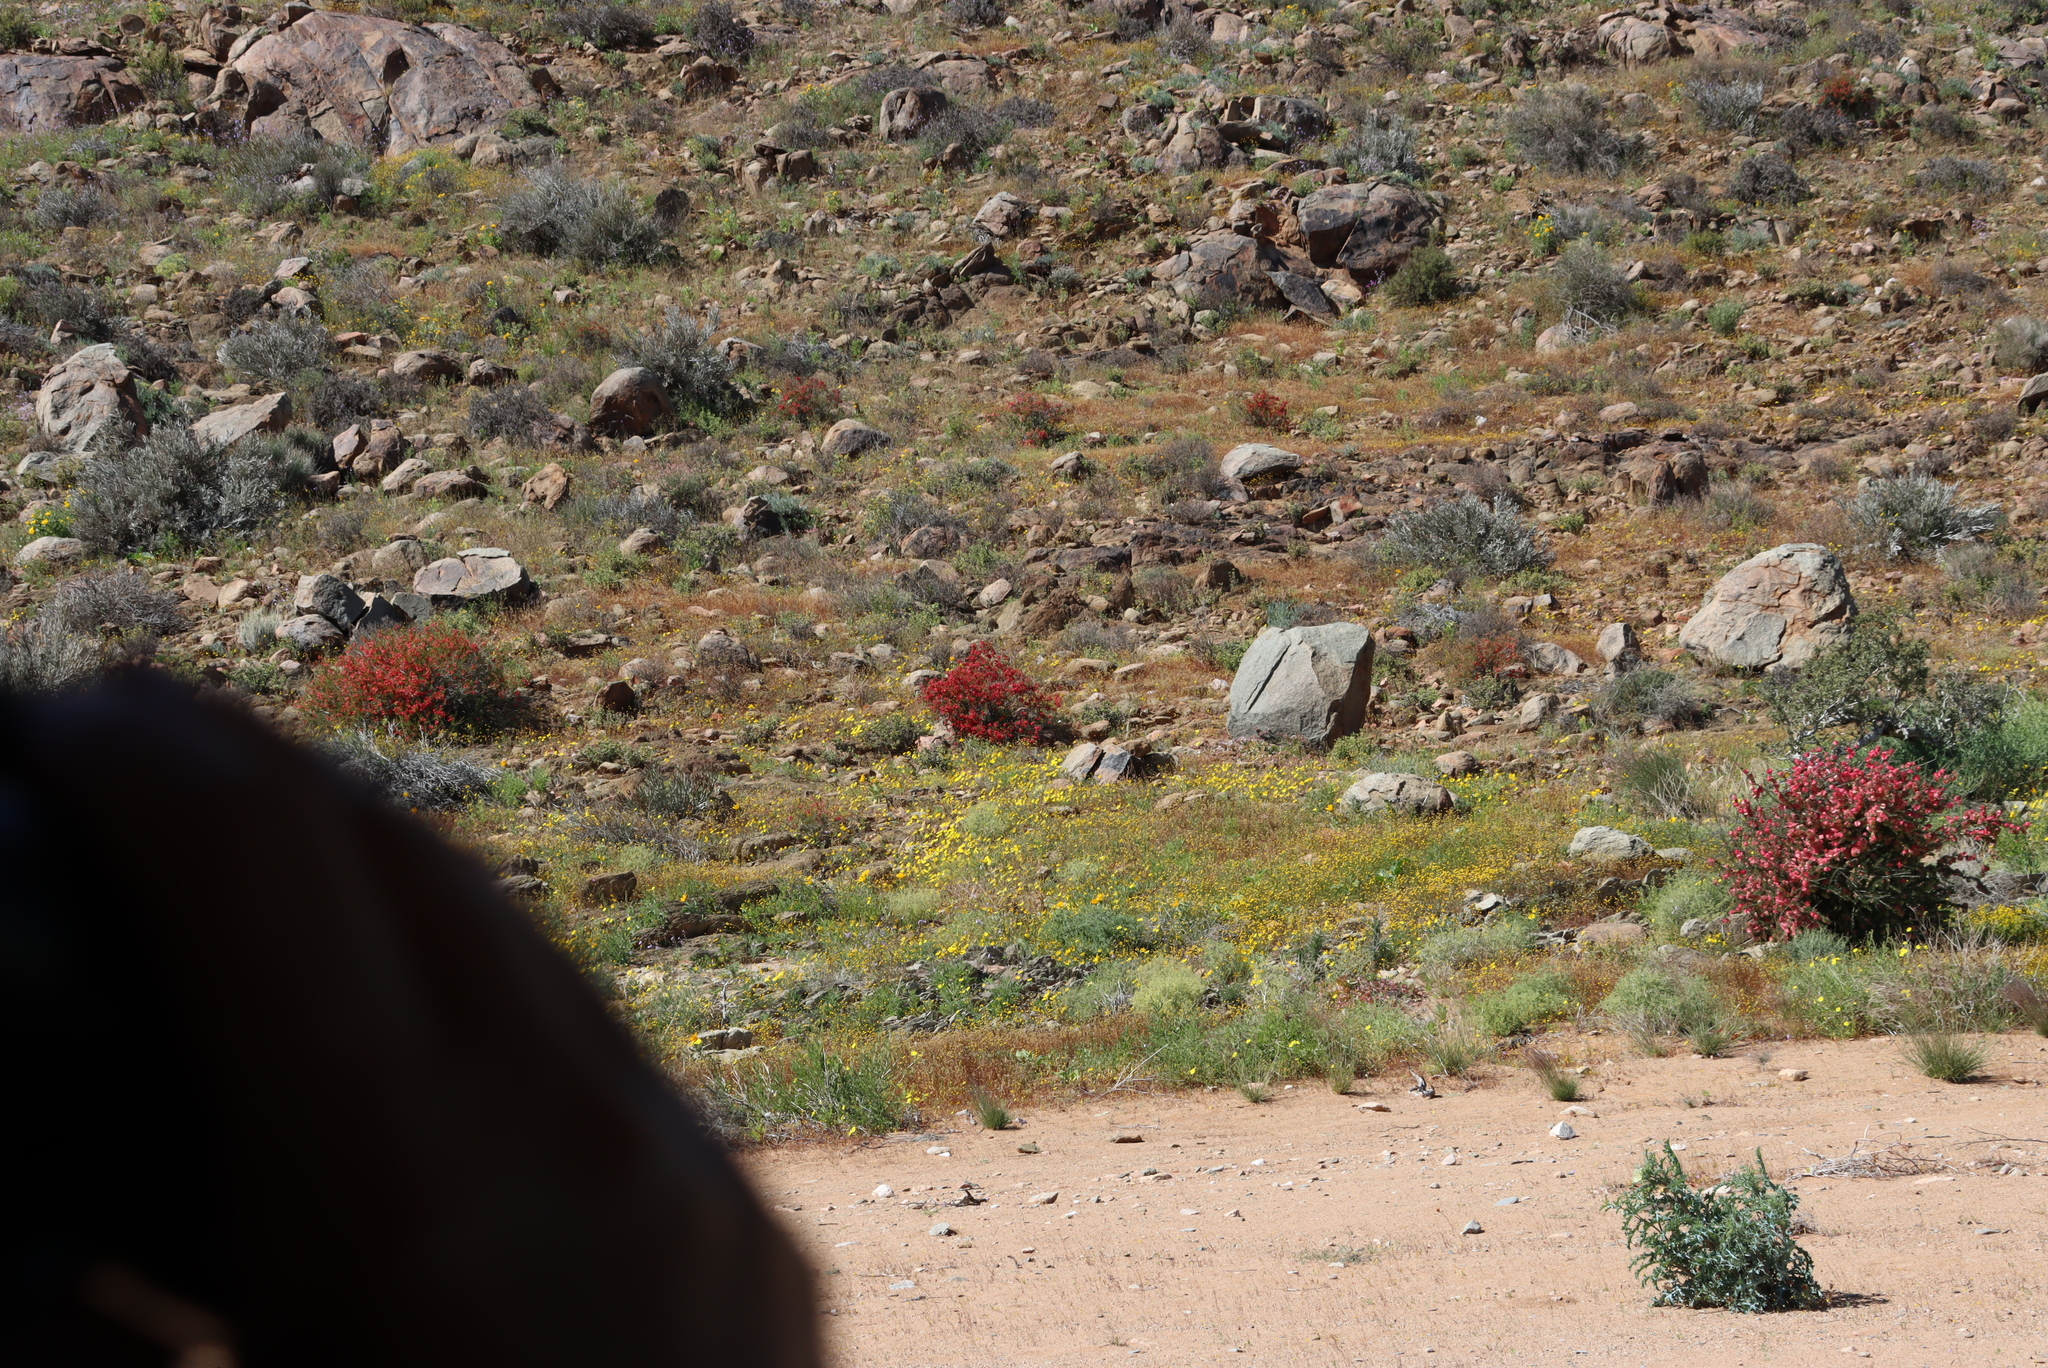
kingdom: Plantae
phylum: Tracheophyta
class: Magnoliopsida
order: Sapindales
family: Meliaceae
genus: Nymania
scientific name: Nymania capensis
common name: Chinese lantern tree
